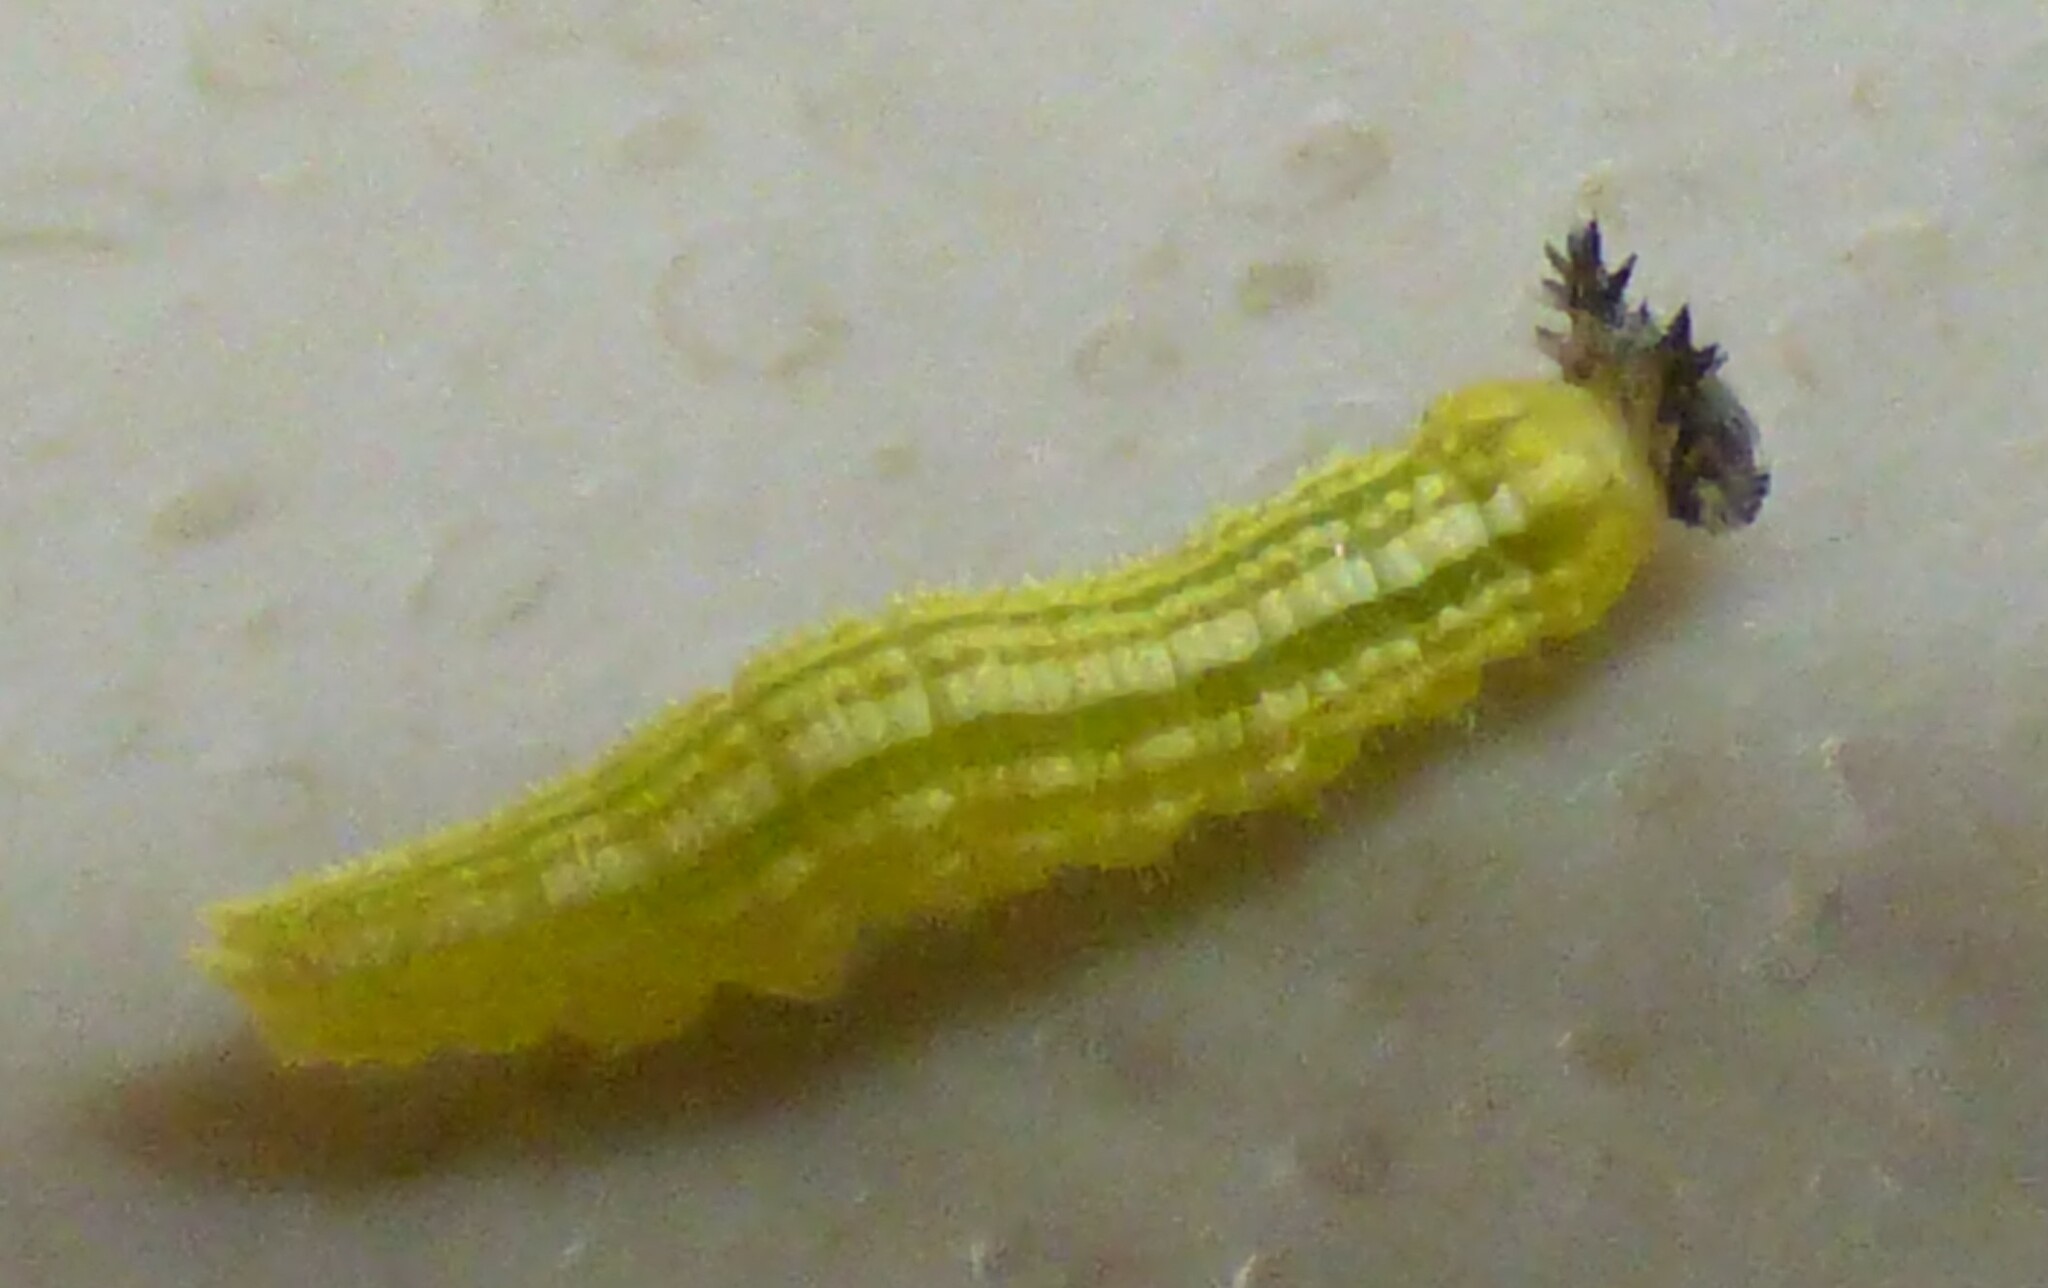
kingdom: Animalia
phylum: Arthropoda
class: Insecta
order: Lepidoptera
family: Nymphalidae
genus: Asterocampa
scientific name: Asterocampa clyton
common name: Tawny emperor
